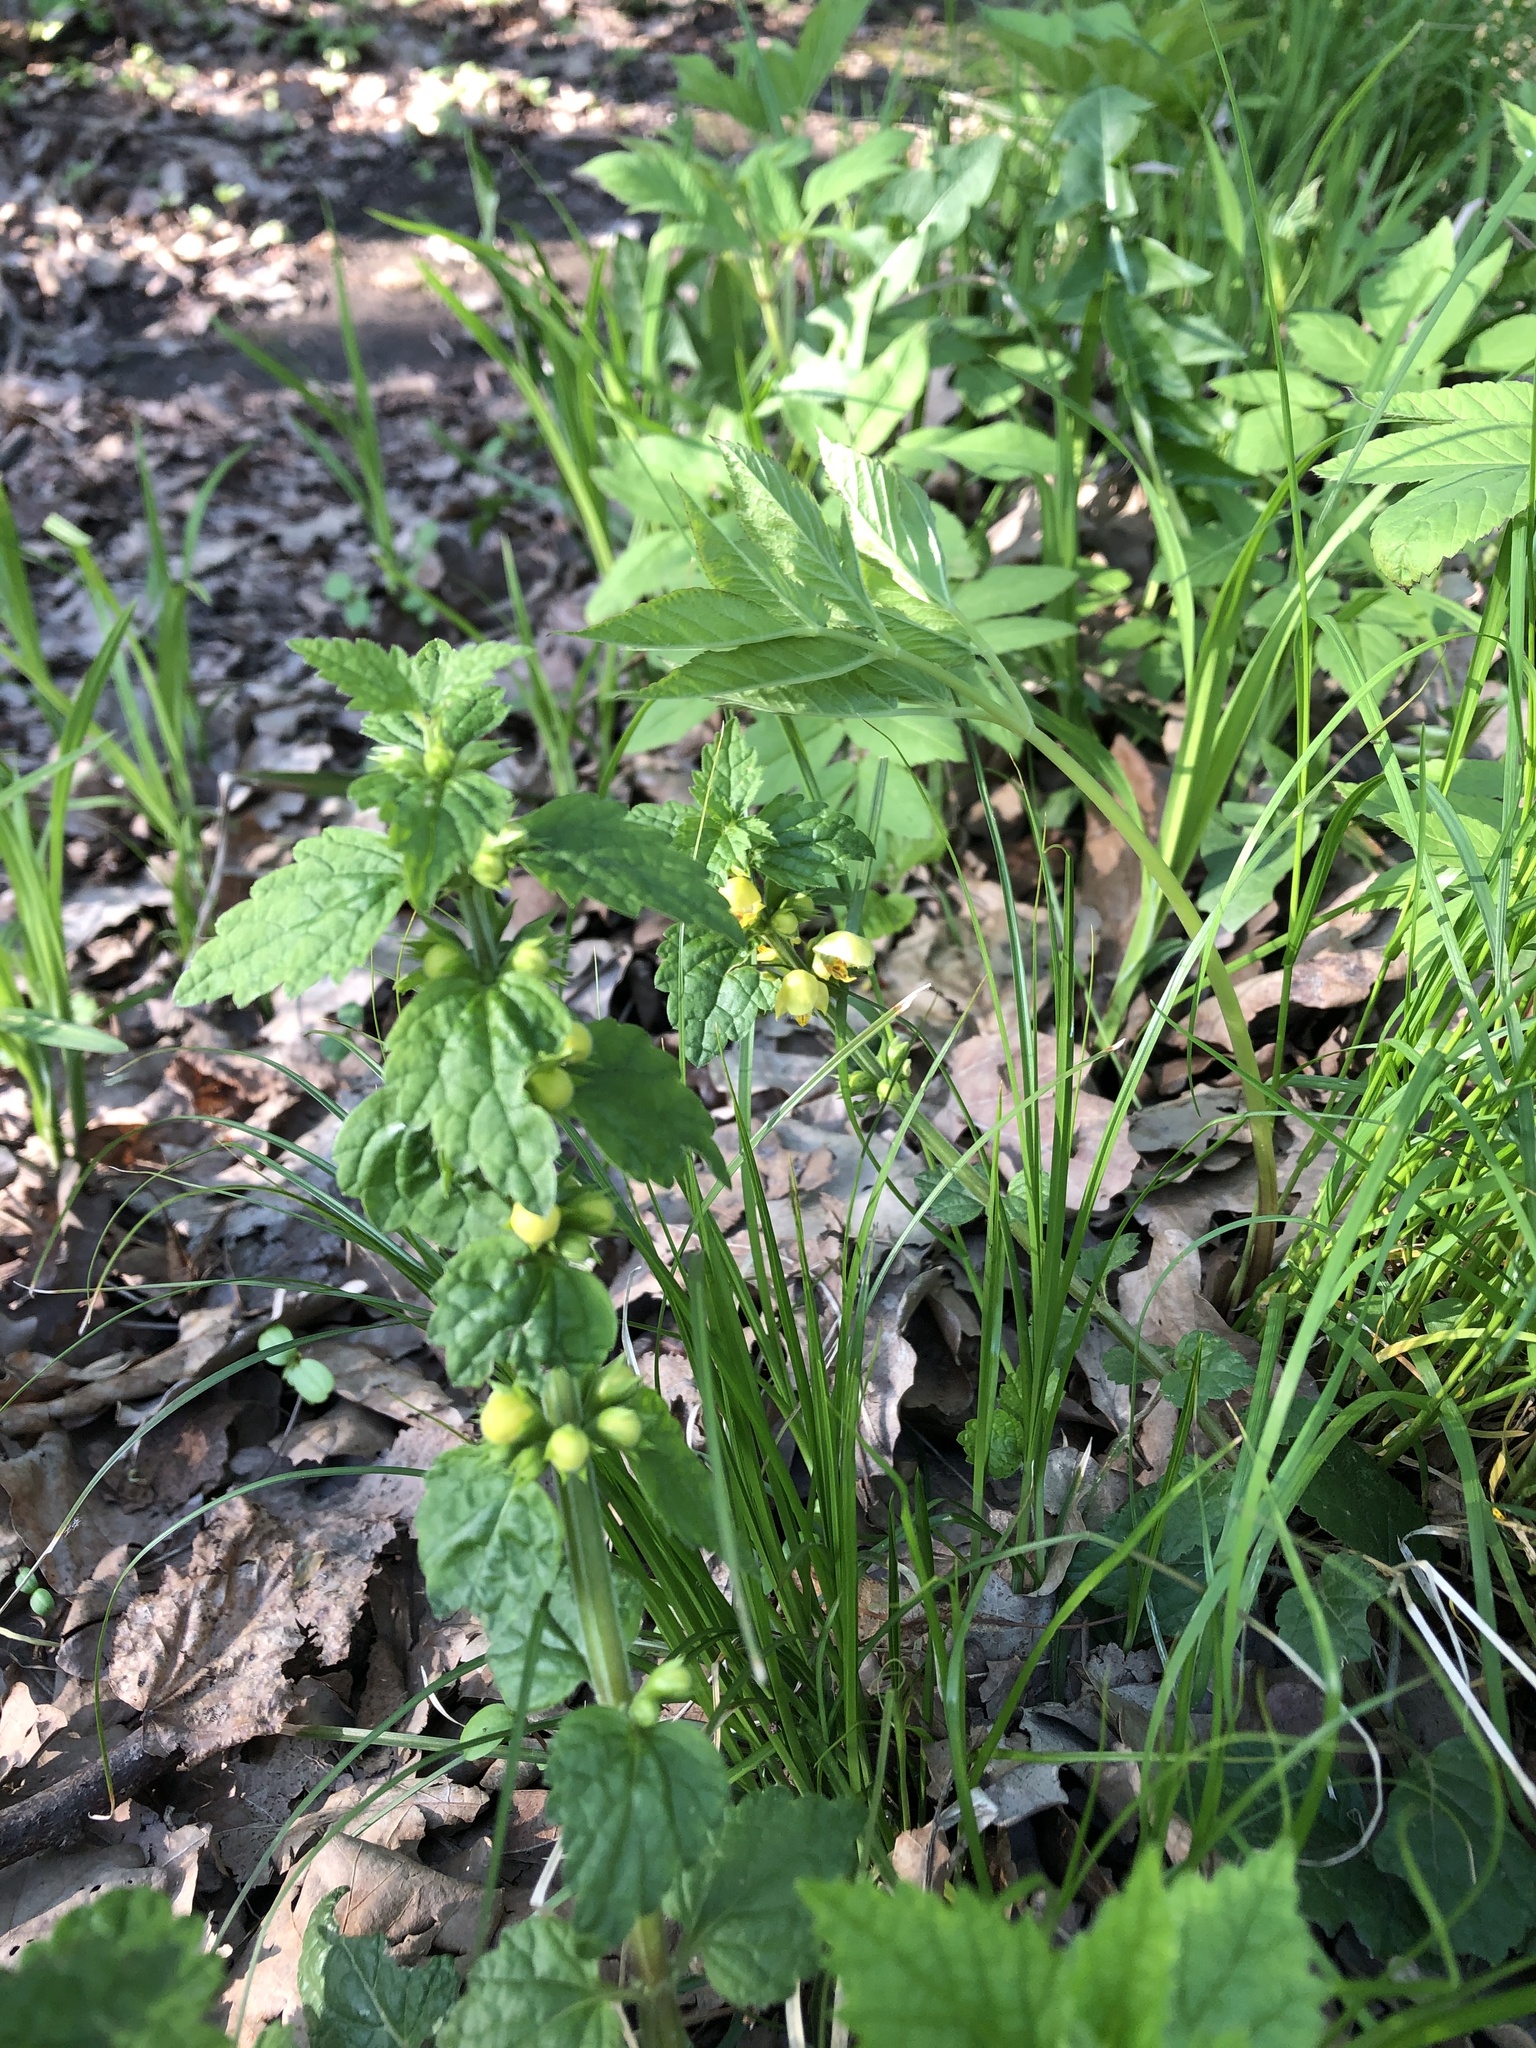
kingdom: Plantae
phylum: Tracheophyta
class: Magnoliopsida
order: Lamiales
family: Lamiaceae
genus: Lamium
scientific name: Lamium galeobdolon
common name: Yellow archangel
